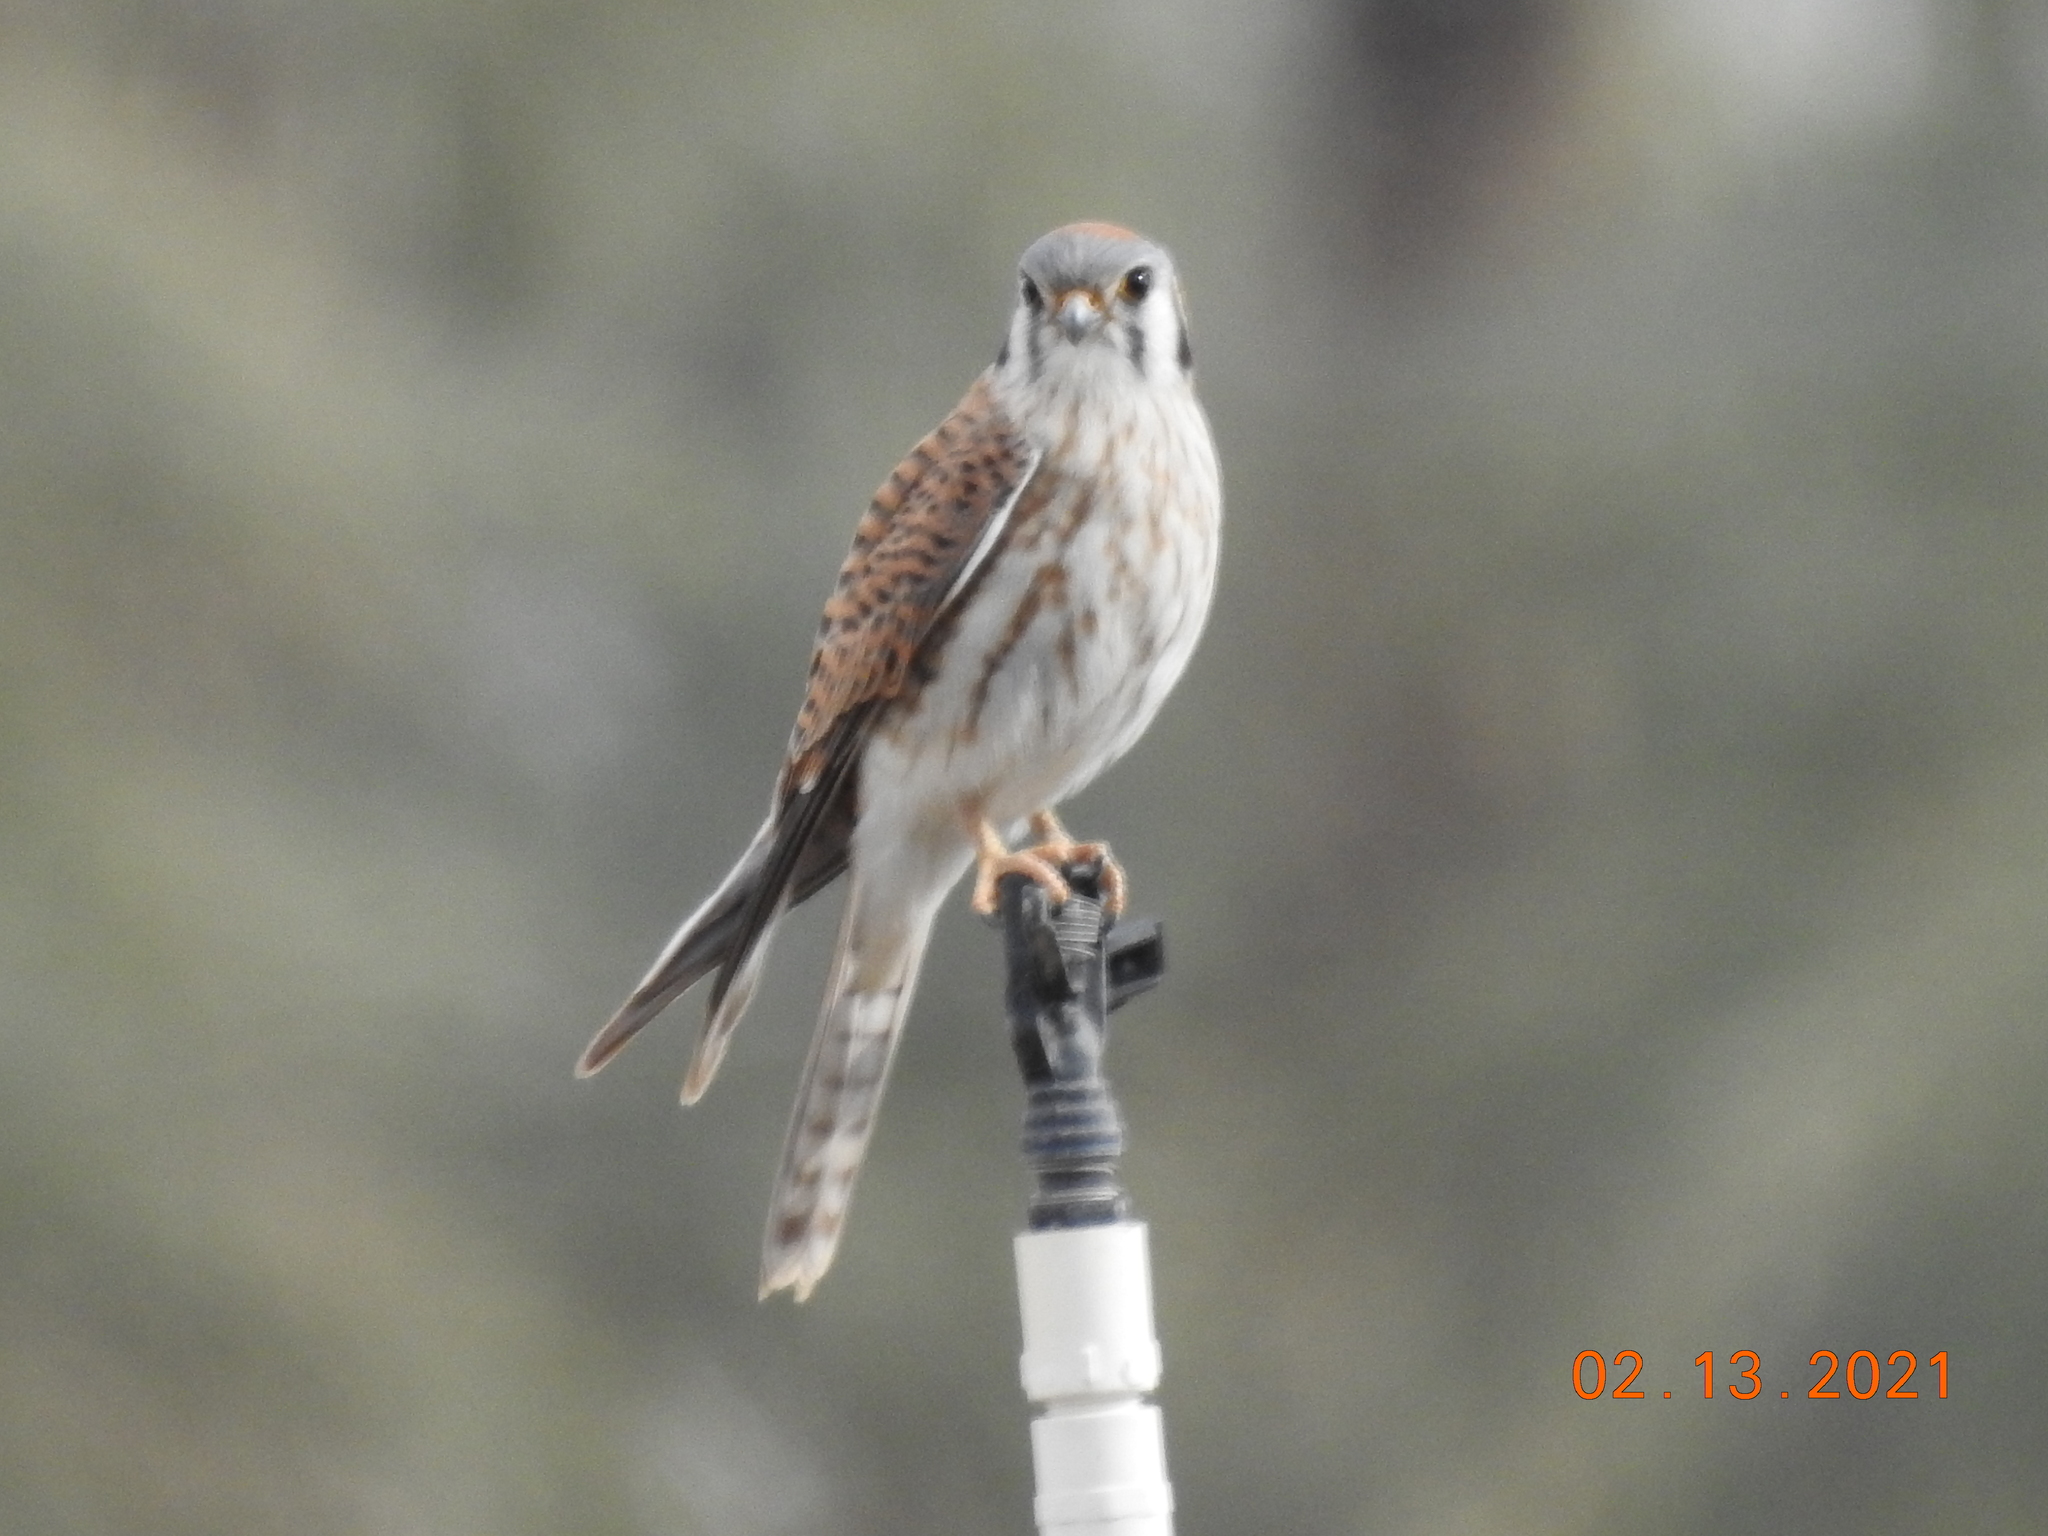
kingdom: Animalia
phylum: Chordata
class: Aves
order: Falconiformes
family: Falconidae
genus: Falco
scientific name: Falco sparverius
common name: American kestrel
